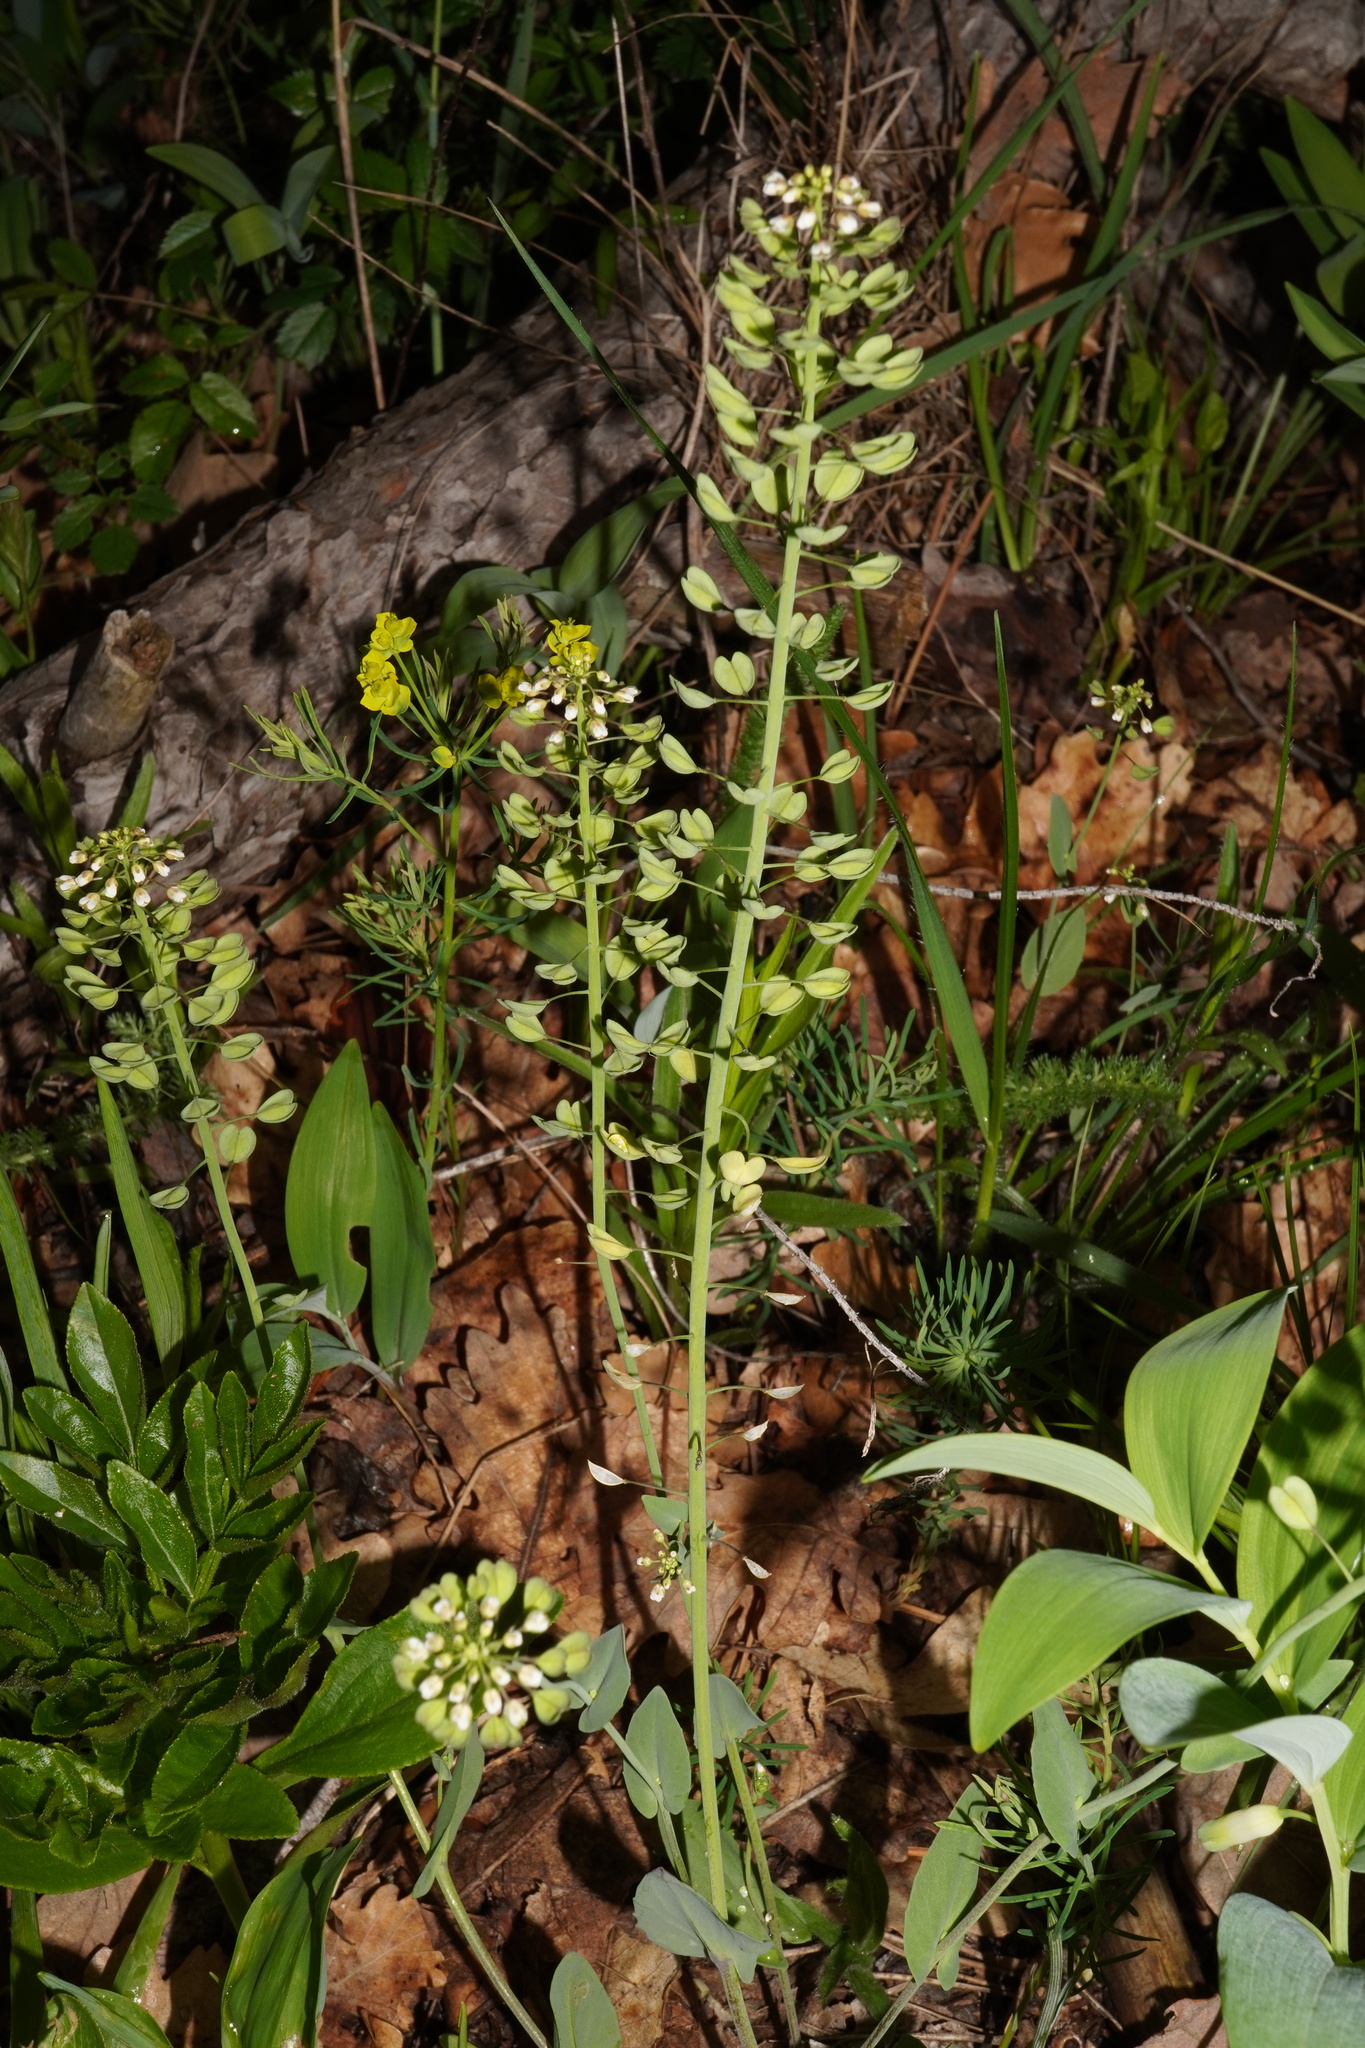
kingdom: Plantae
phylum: Tracheophyta
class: Magnoliopsida
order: Brassicales
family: Brassicaceae
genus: Noccaea
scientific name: Noccaea perfoliata
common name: Perfoliate pennycress
